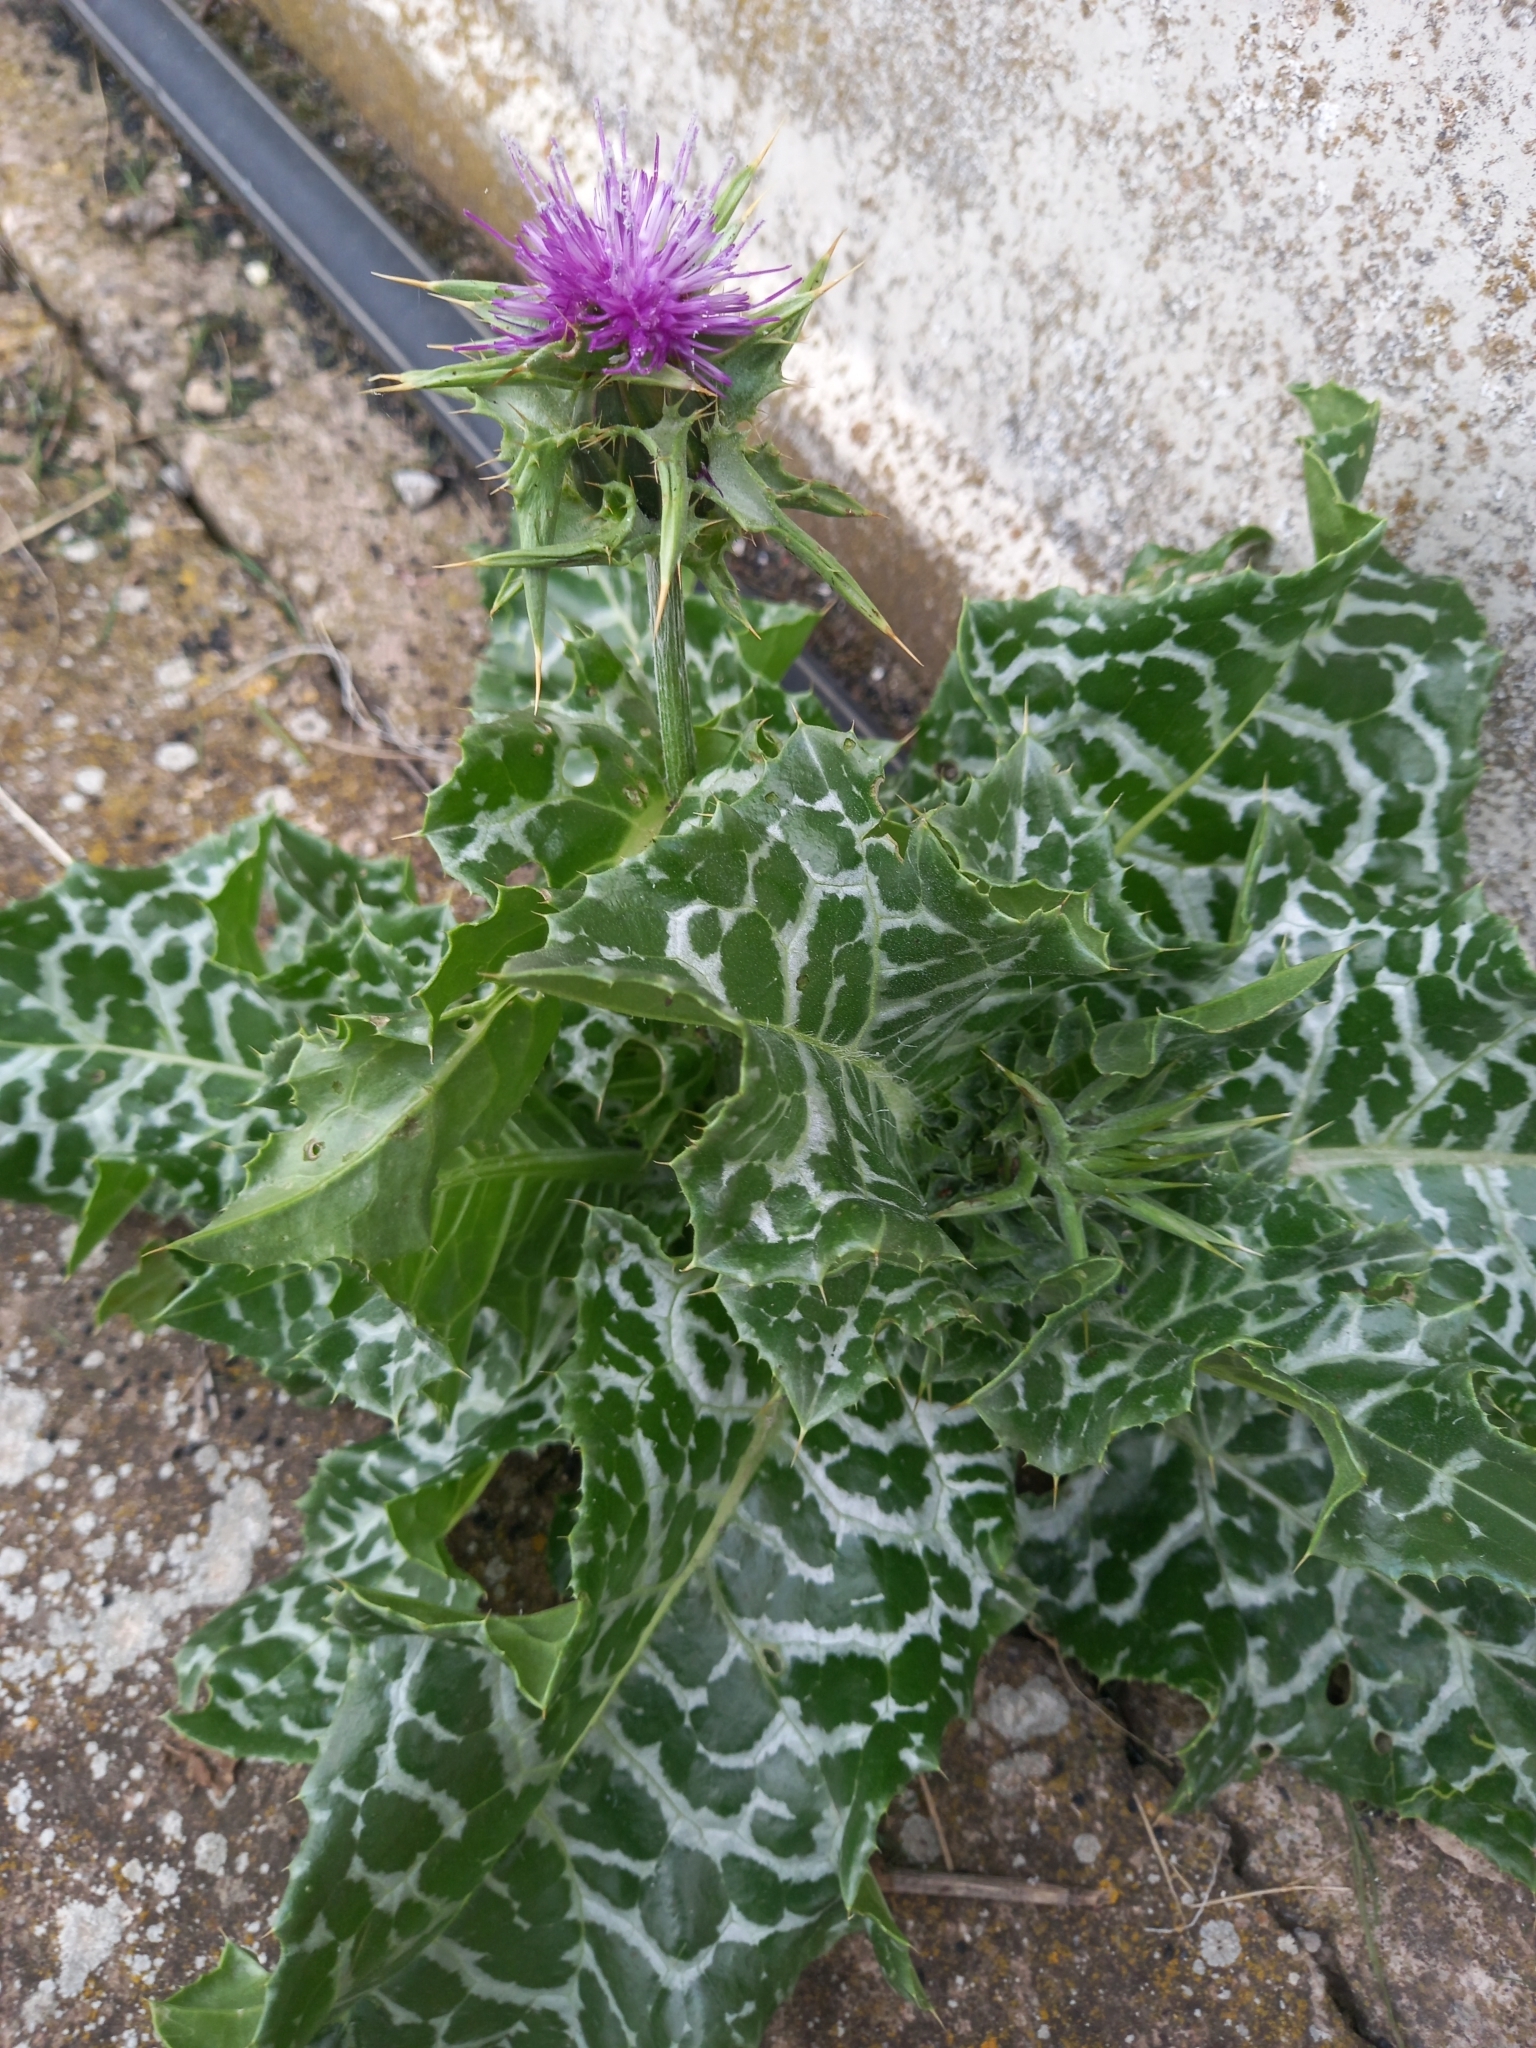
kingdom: Plantae
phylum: Tracheophyta
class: Magnoliopsida
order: Asterales
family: Asteraceae
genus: Silybum
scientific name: Silybum marianum
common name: Milk thistle
